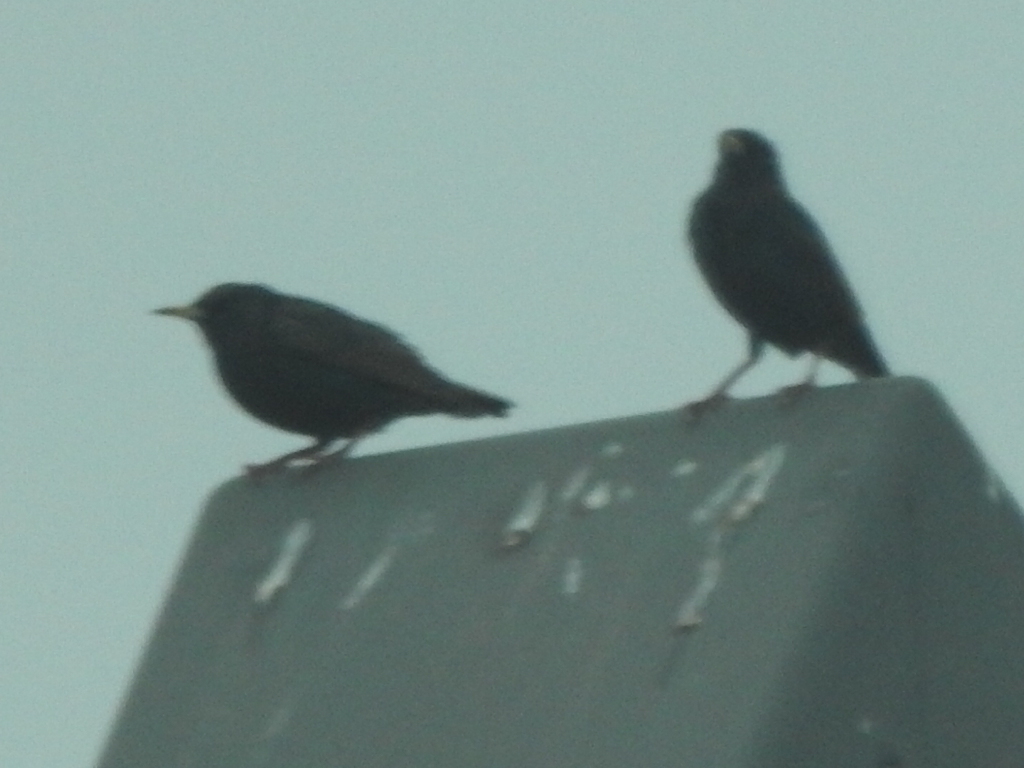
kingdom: Animalia
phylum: Chordata
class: Aves
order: Passeriformes
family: Sturnidae
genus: Sturnus
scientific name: Sturnus vulgaris
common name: Common starling
